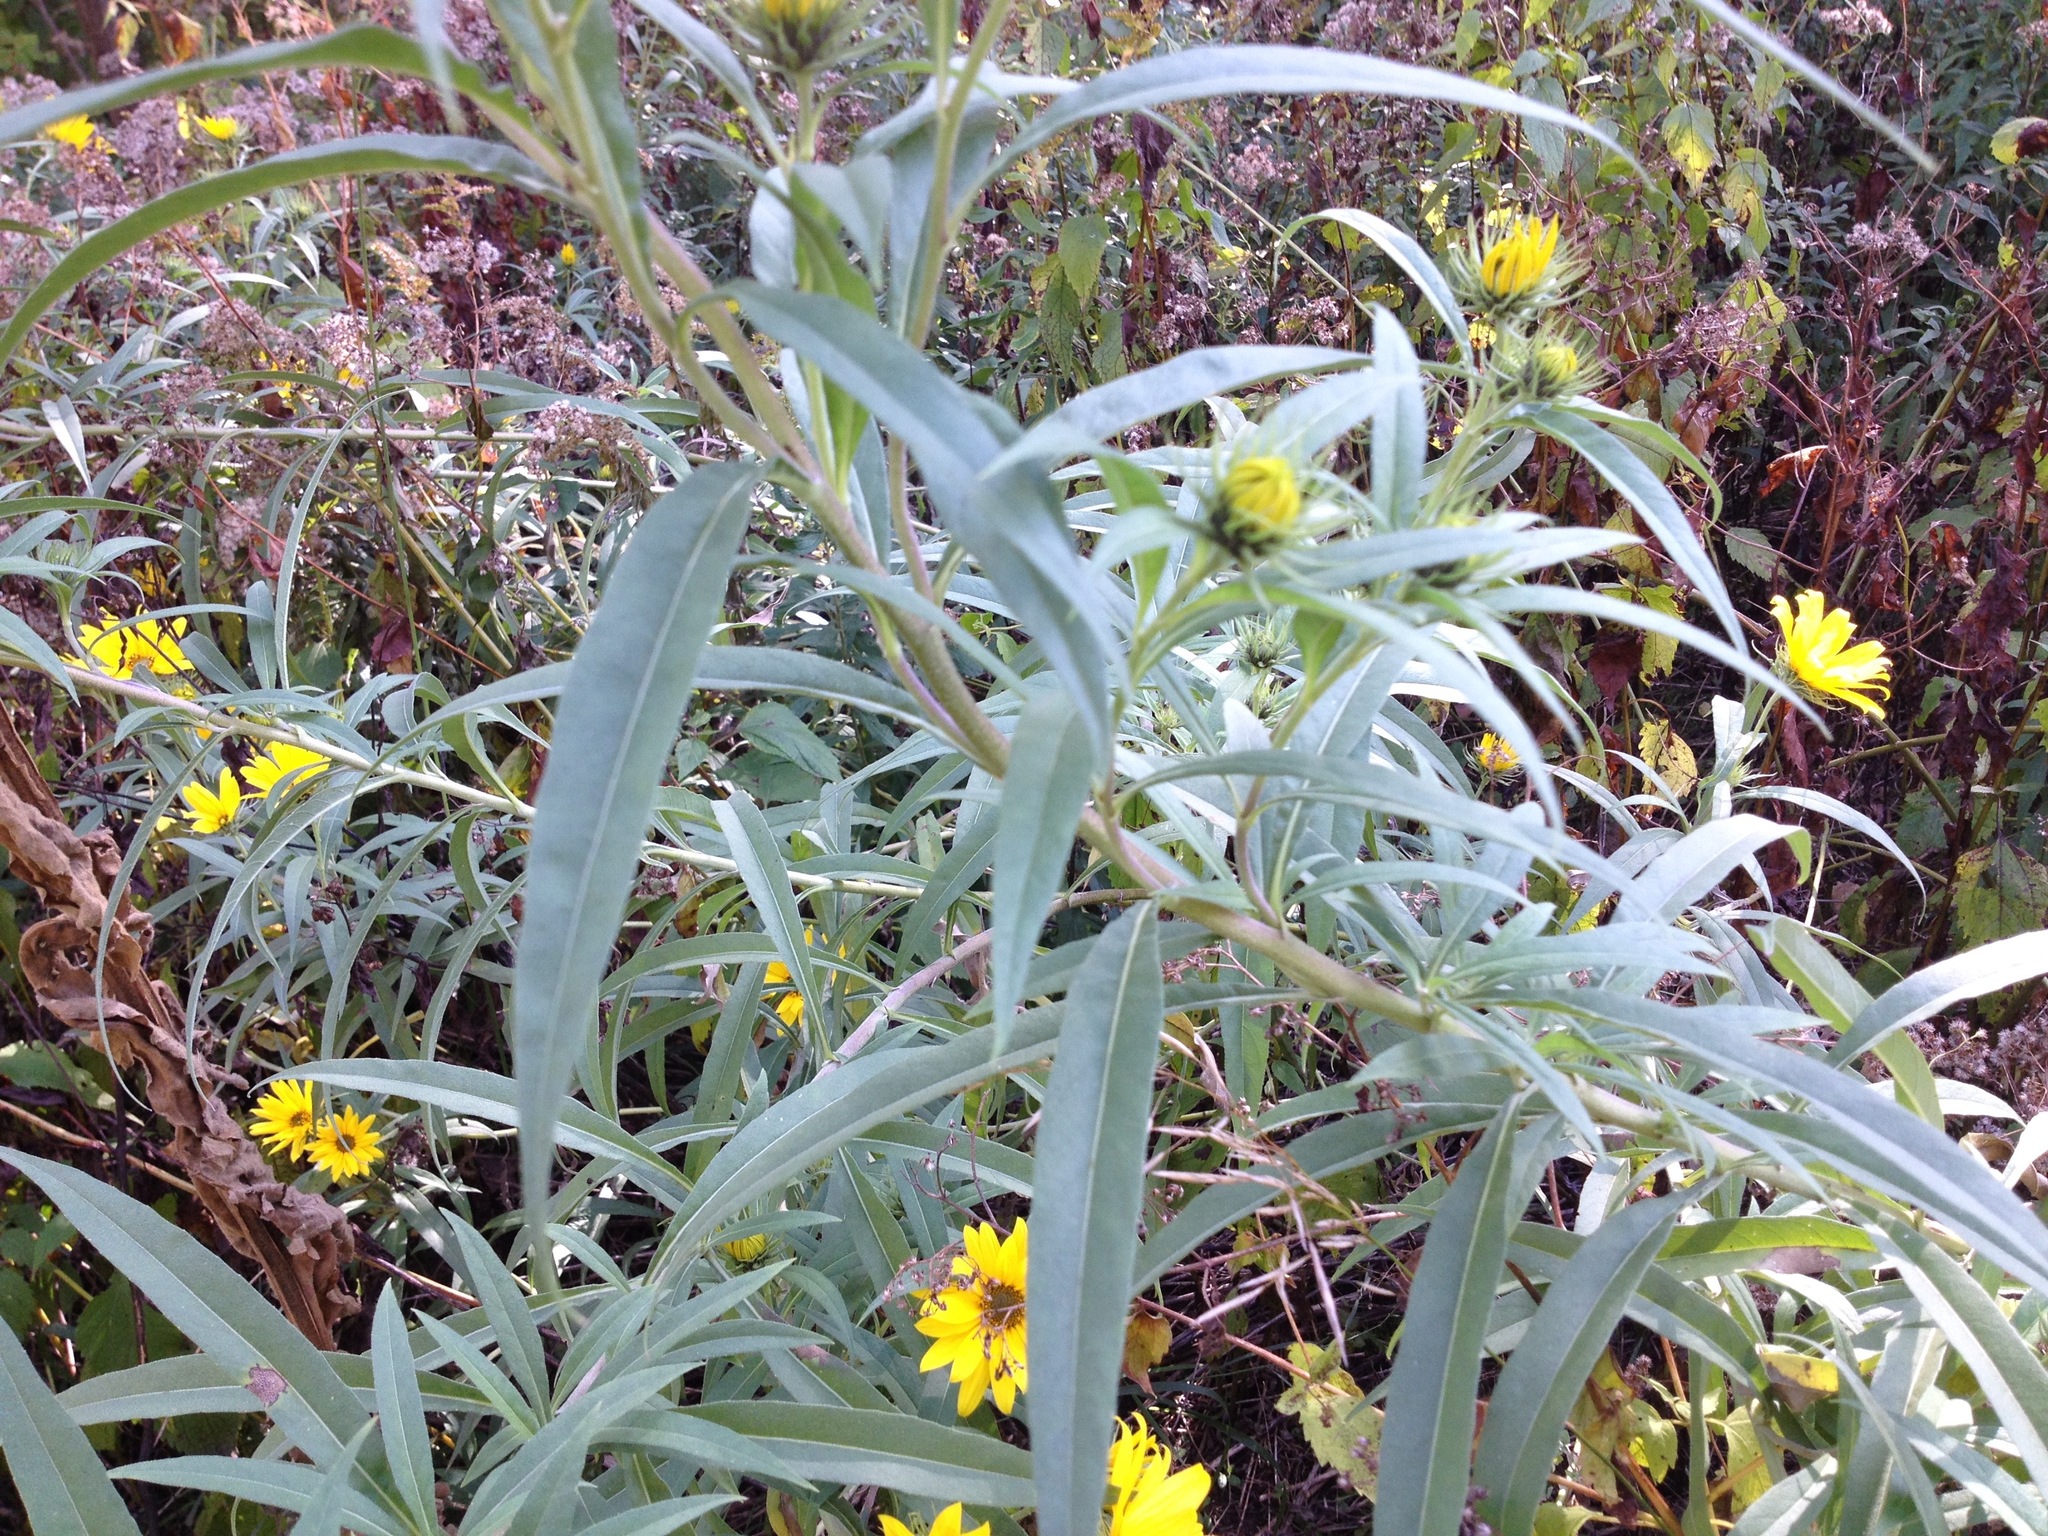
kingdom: Plantae
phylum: Tracheophyta
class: Magnoliopsida
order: Asterales
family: Asteraceae
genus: Helianthus
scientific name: Helianthus maximiliani
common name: Maximilian's sunflower
